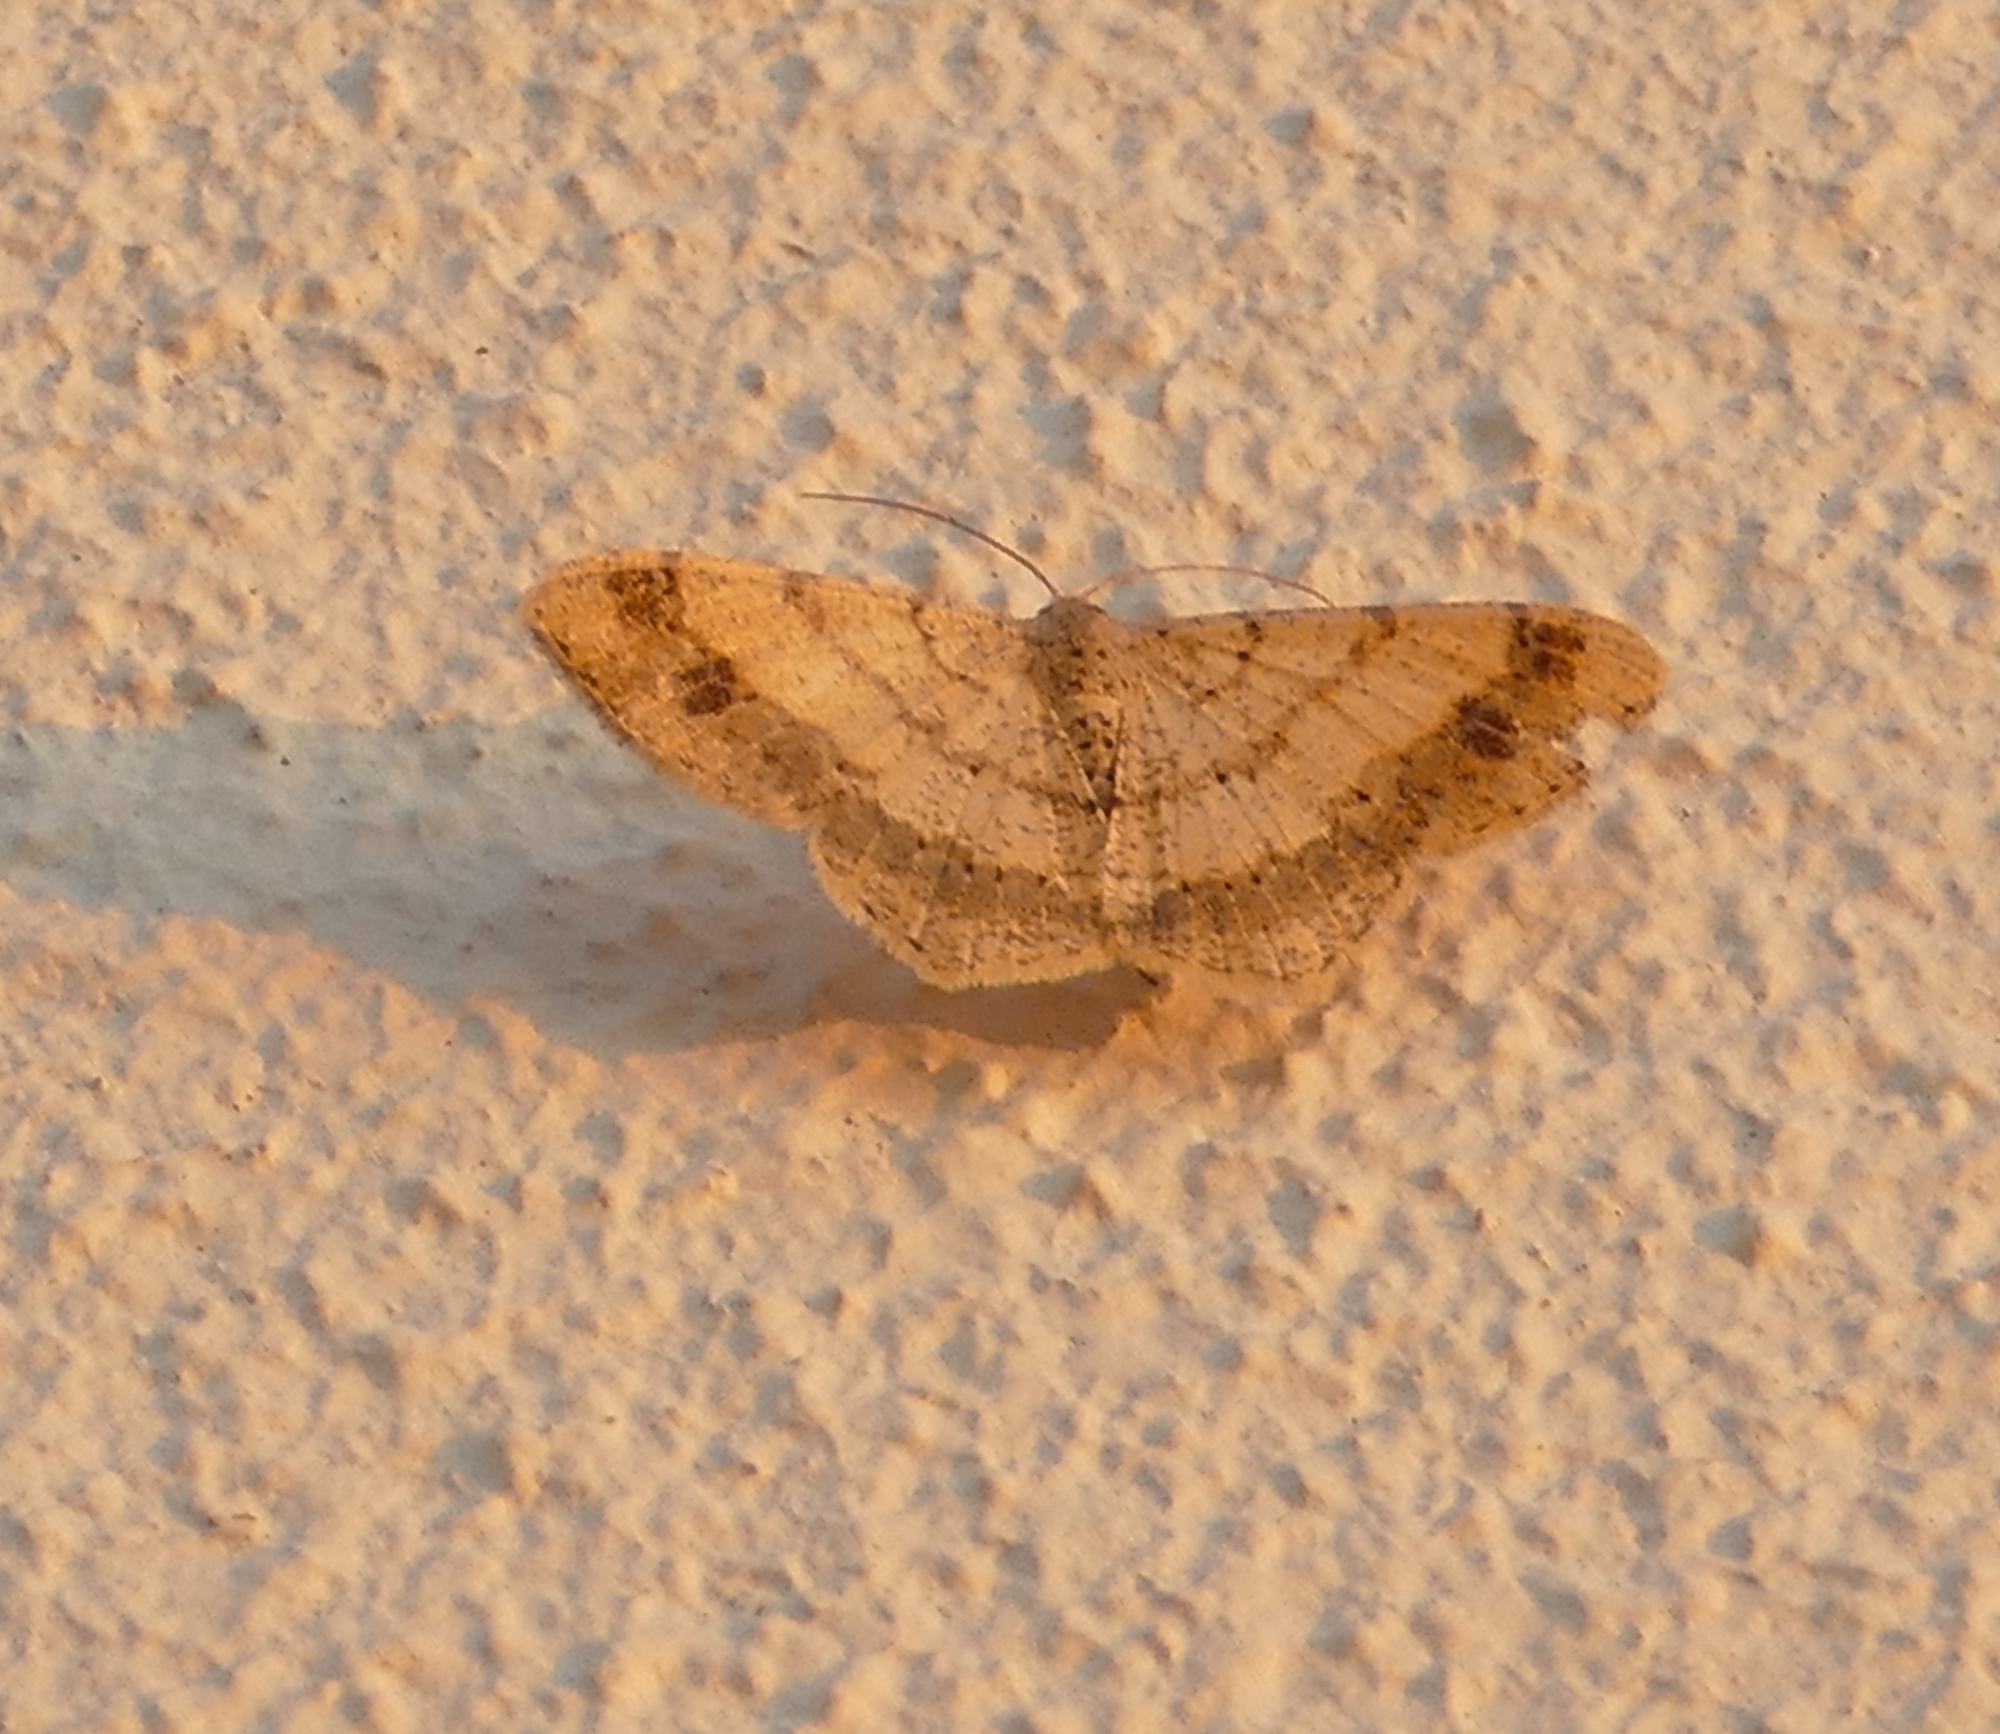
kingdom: Animalia
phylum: Arthropoda
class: Insecta
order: Lepidoptera
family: Geometridae
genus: Macaria
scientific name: Macaria abydata
